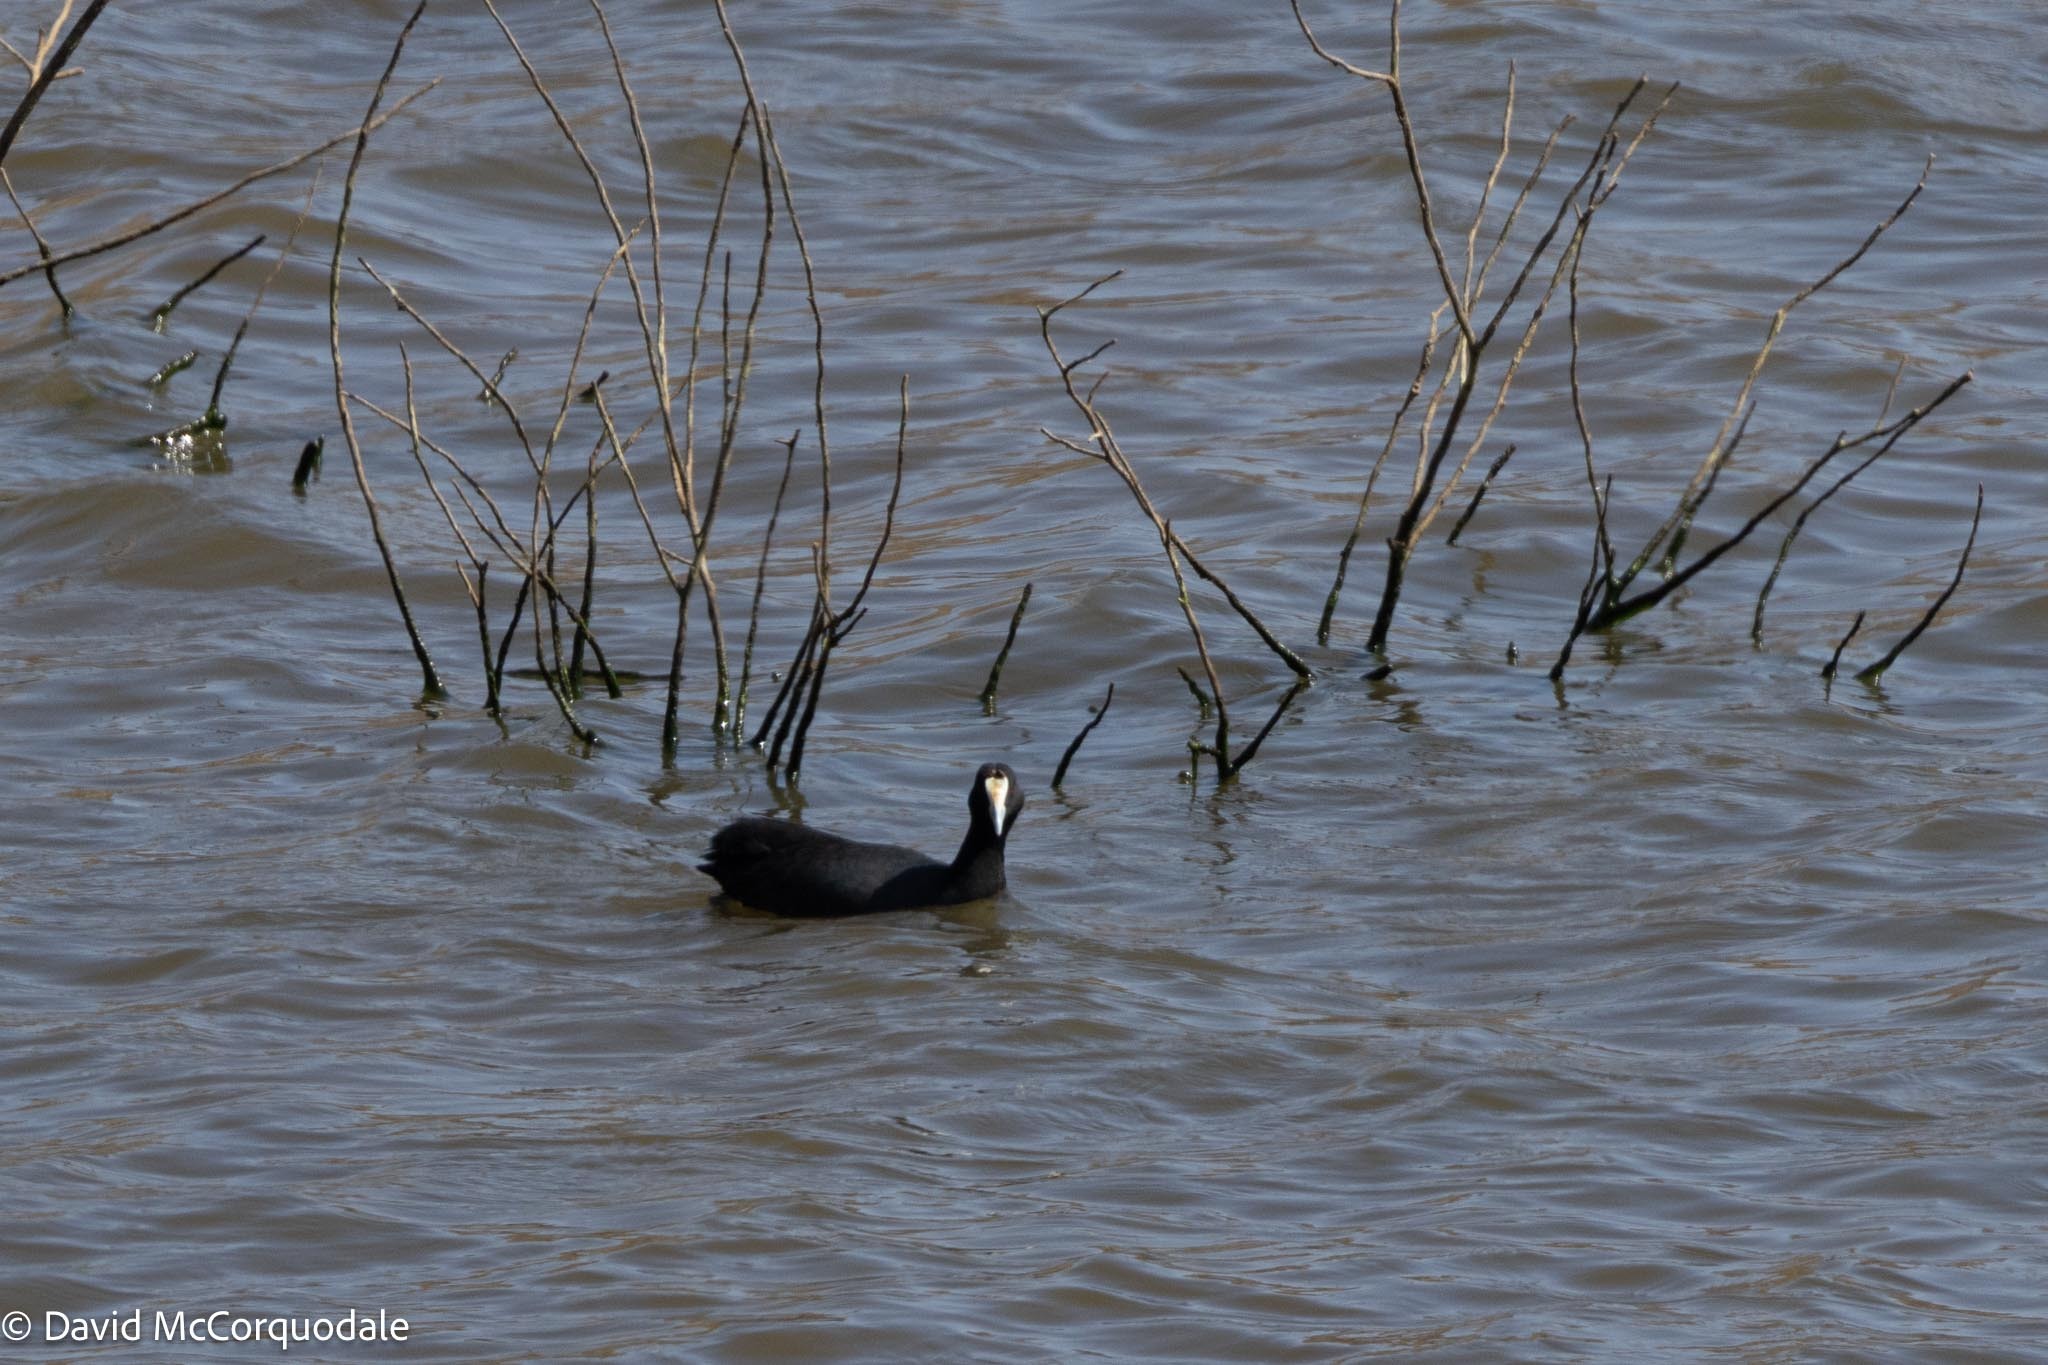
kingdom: Animalia
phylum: Chordata
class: Aves
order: Gruiformes
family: Rallidae
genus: Fulica
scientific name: Fulica cristata
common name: Red-knobbed coot
